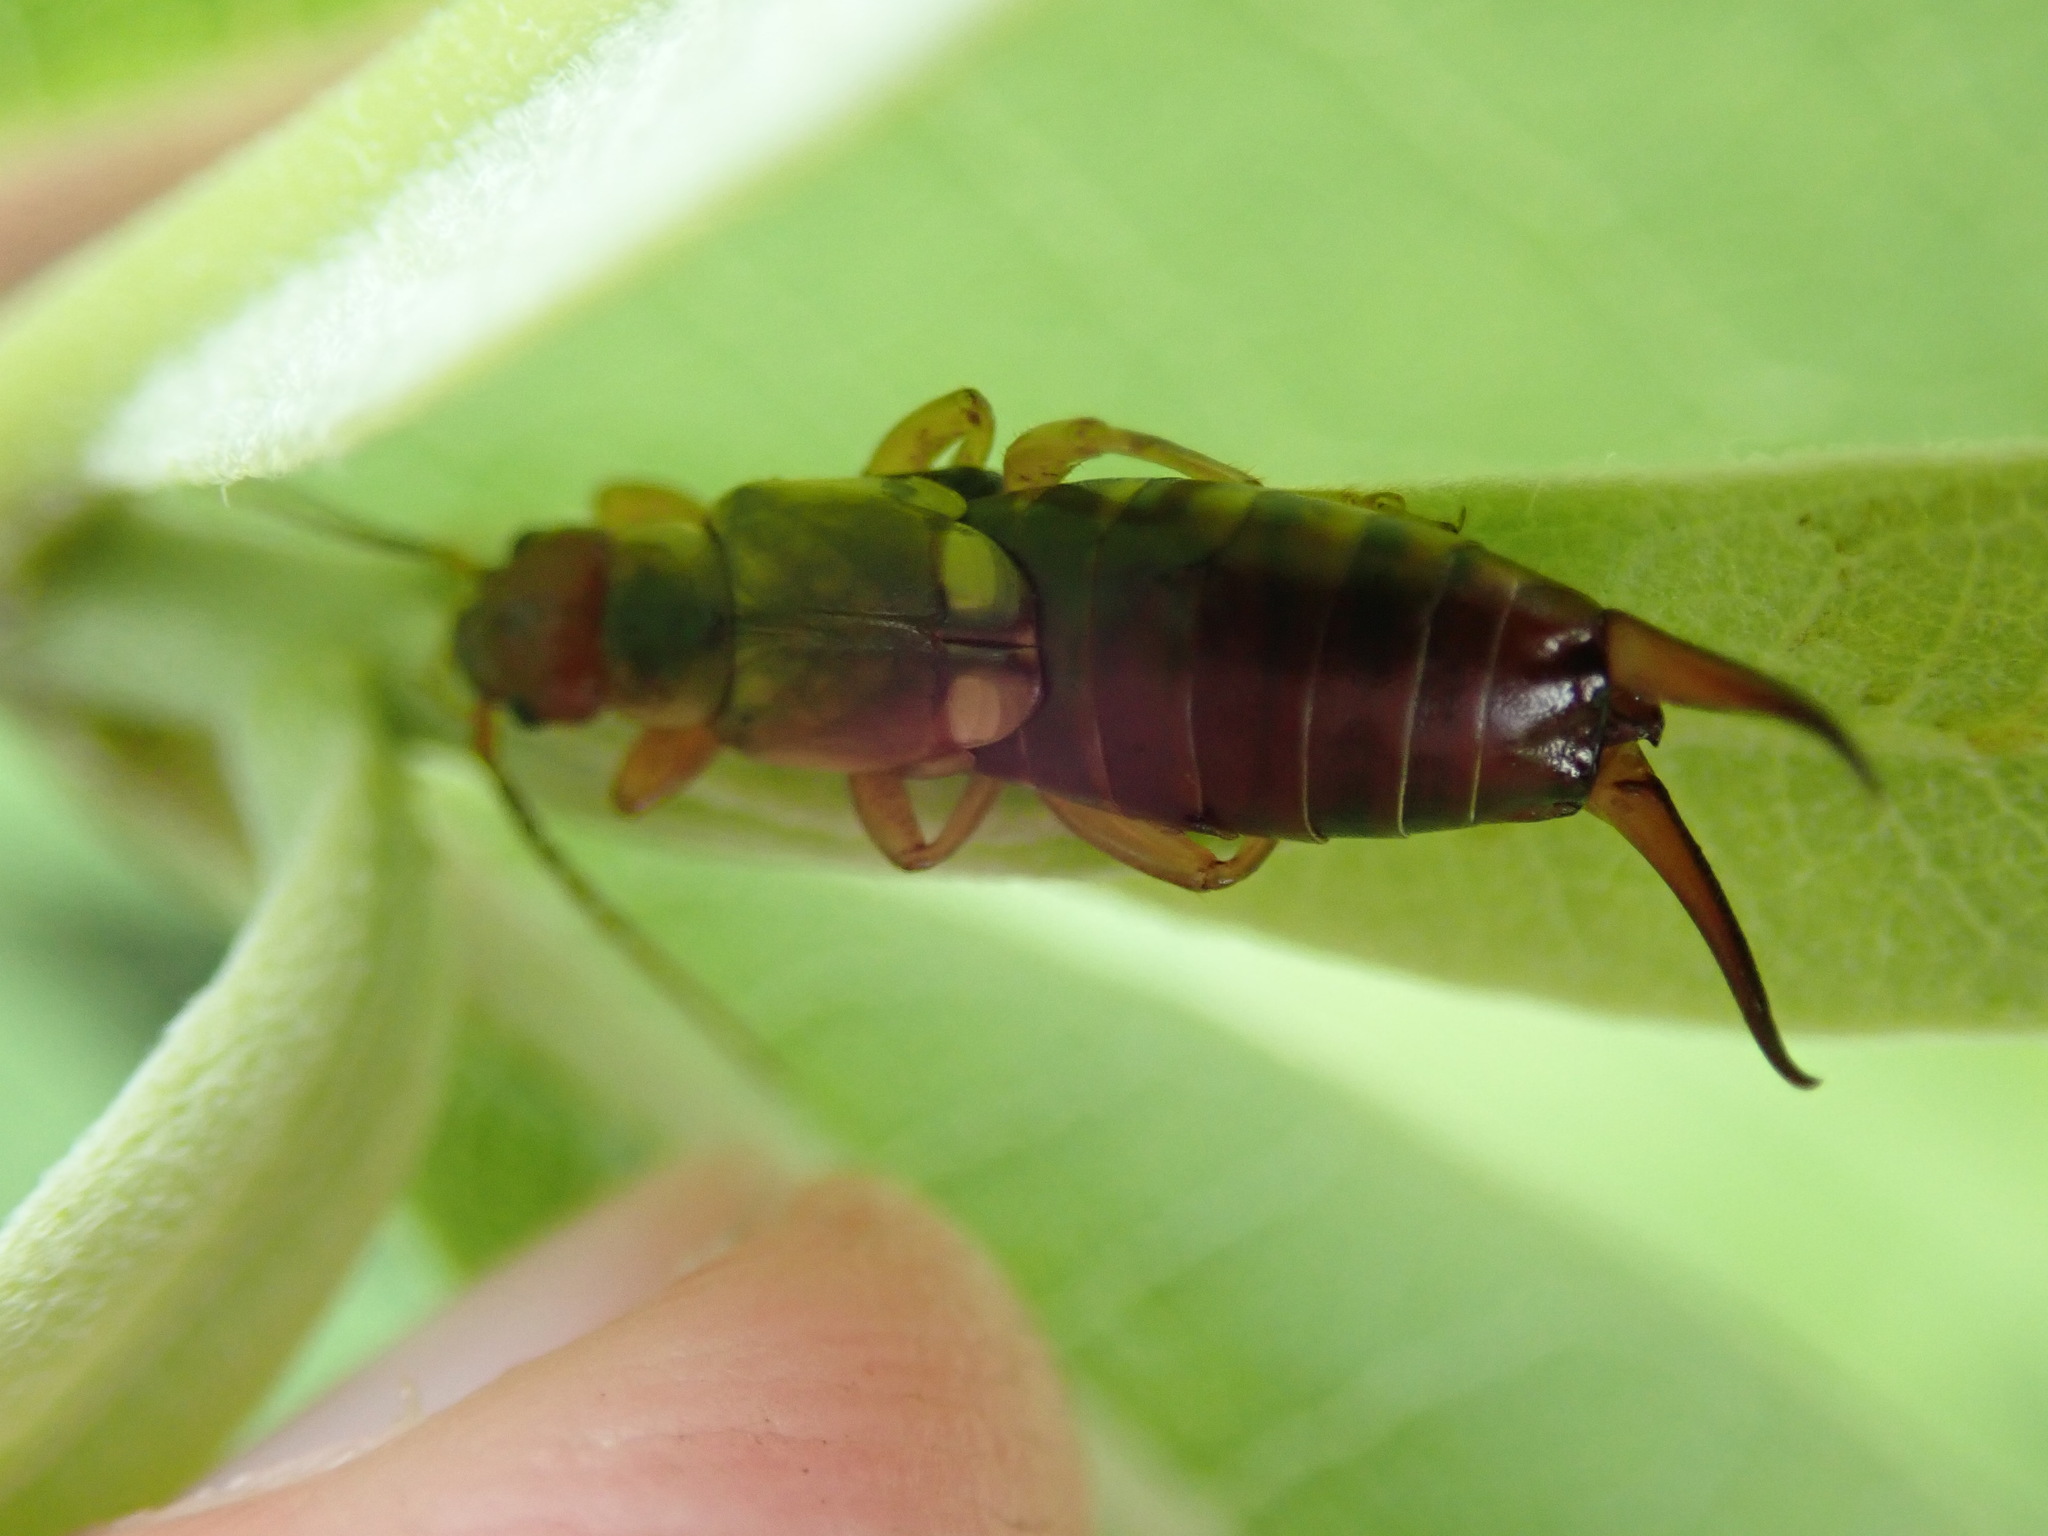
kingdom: Animalia
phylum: Arthropoda
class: Insecta
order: Dermaptera
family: Forficulidae
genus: Forficula
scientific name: Forficula
